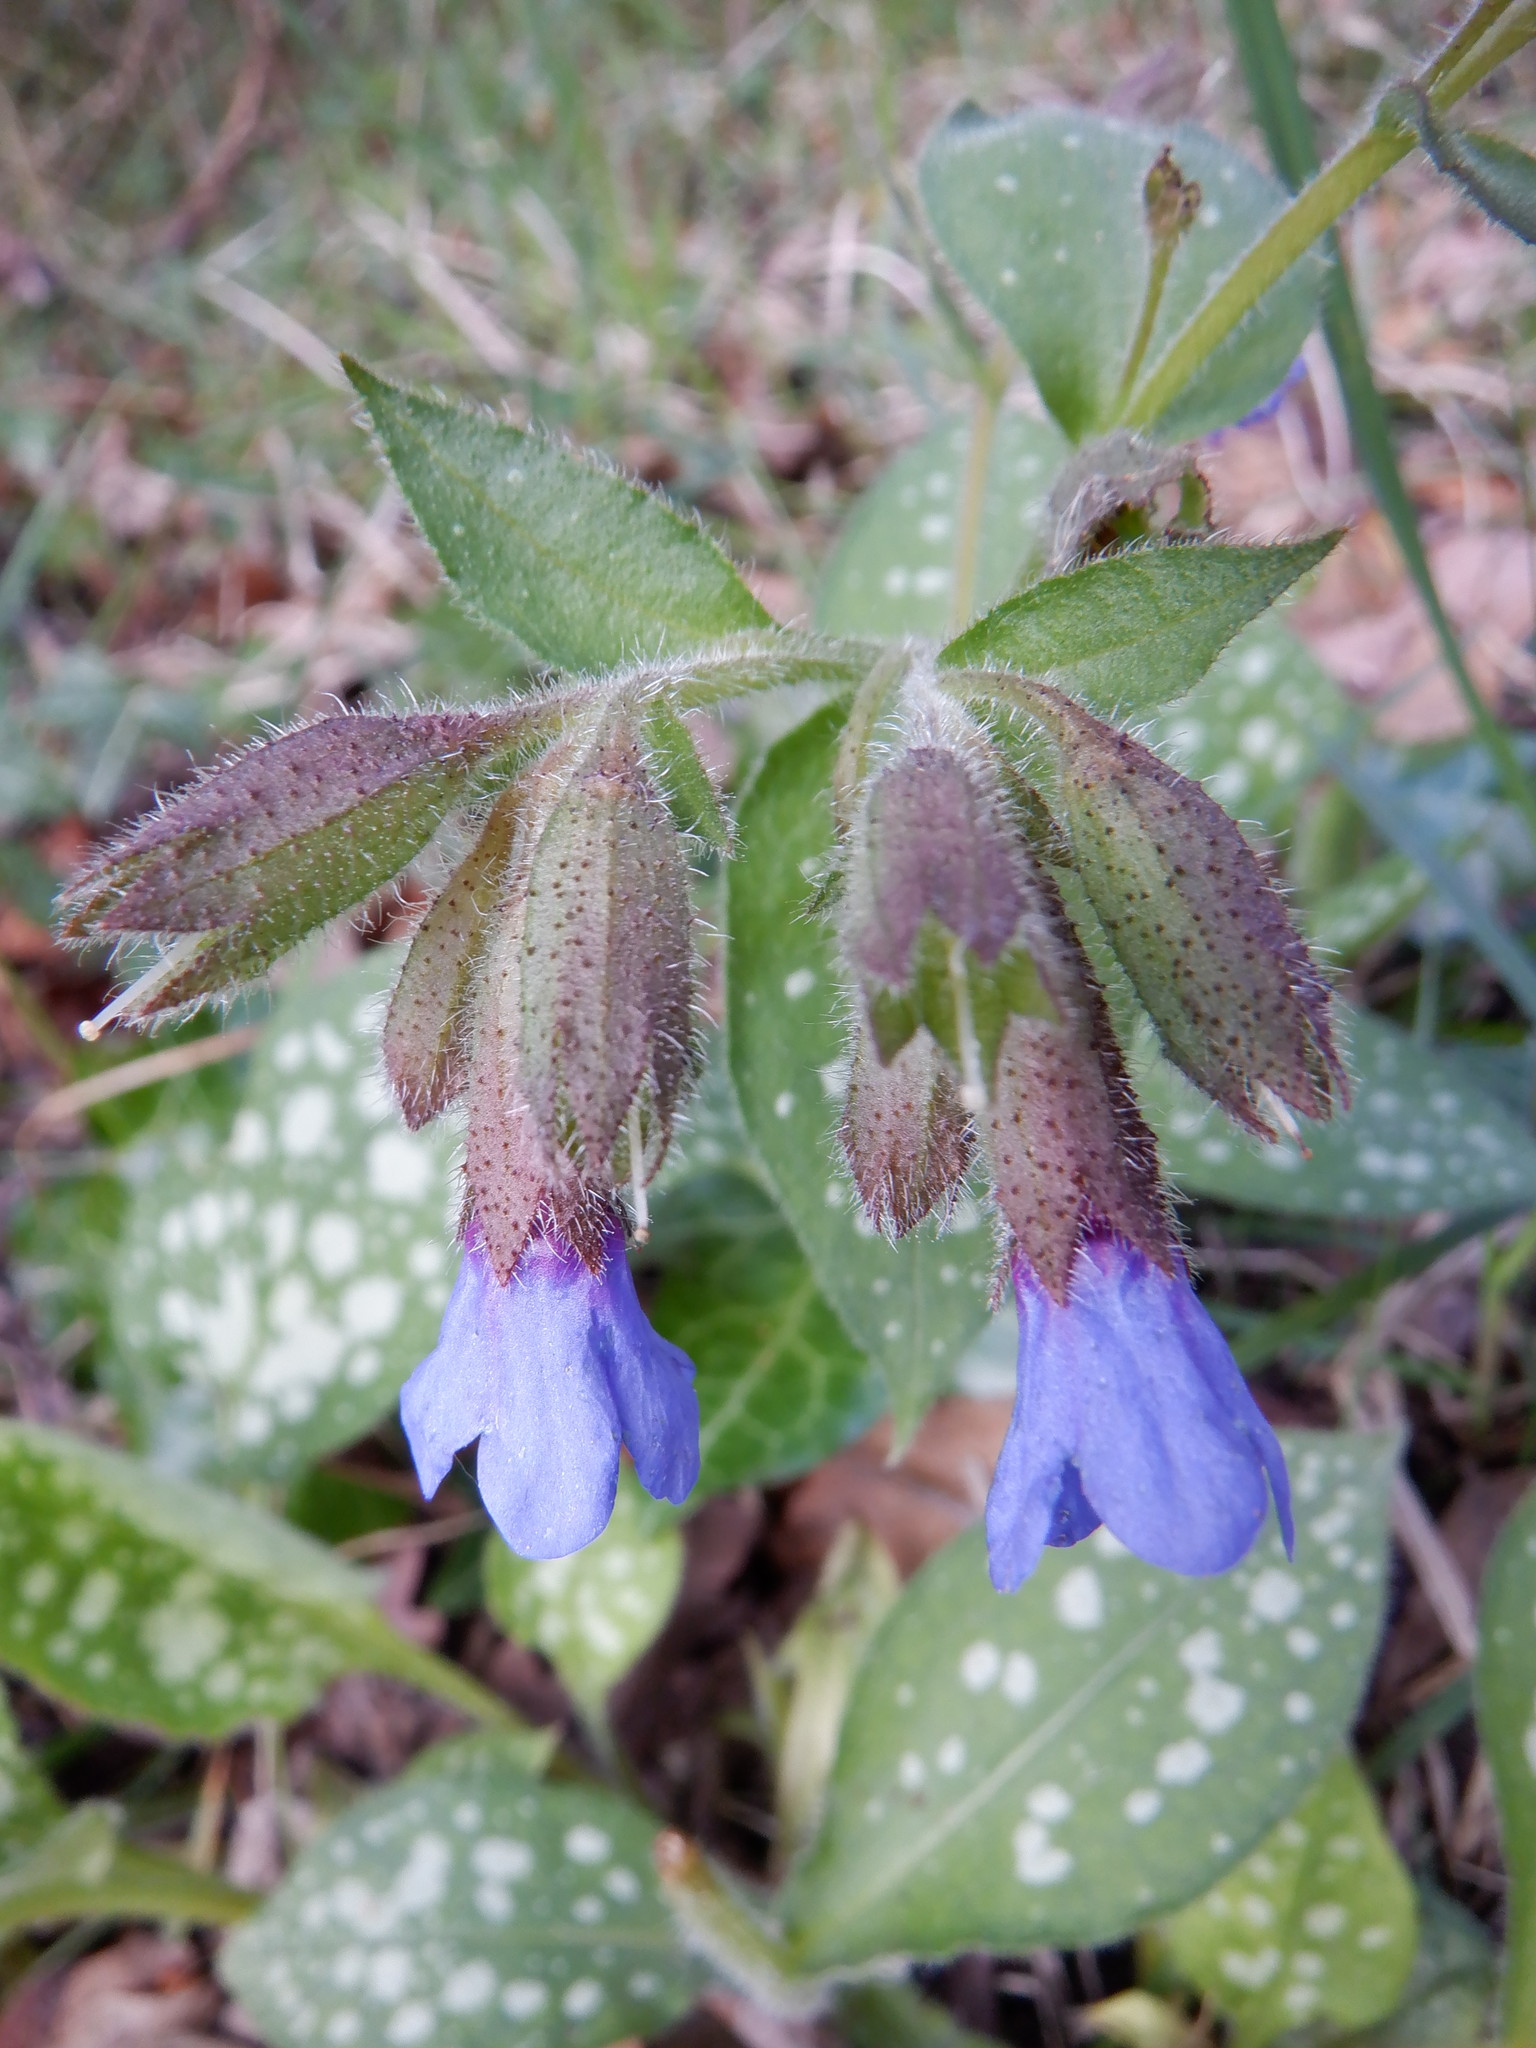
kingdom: Plantae
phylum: Tracheophyta
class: Magnoliopsida
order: Boraginales
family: Boraginaceae
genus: Pulmonaria
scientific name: Pulmonaria officinalis
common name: Lungwort
